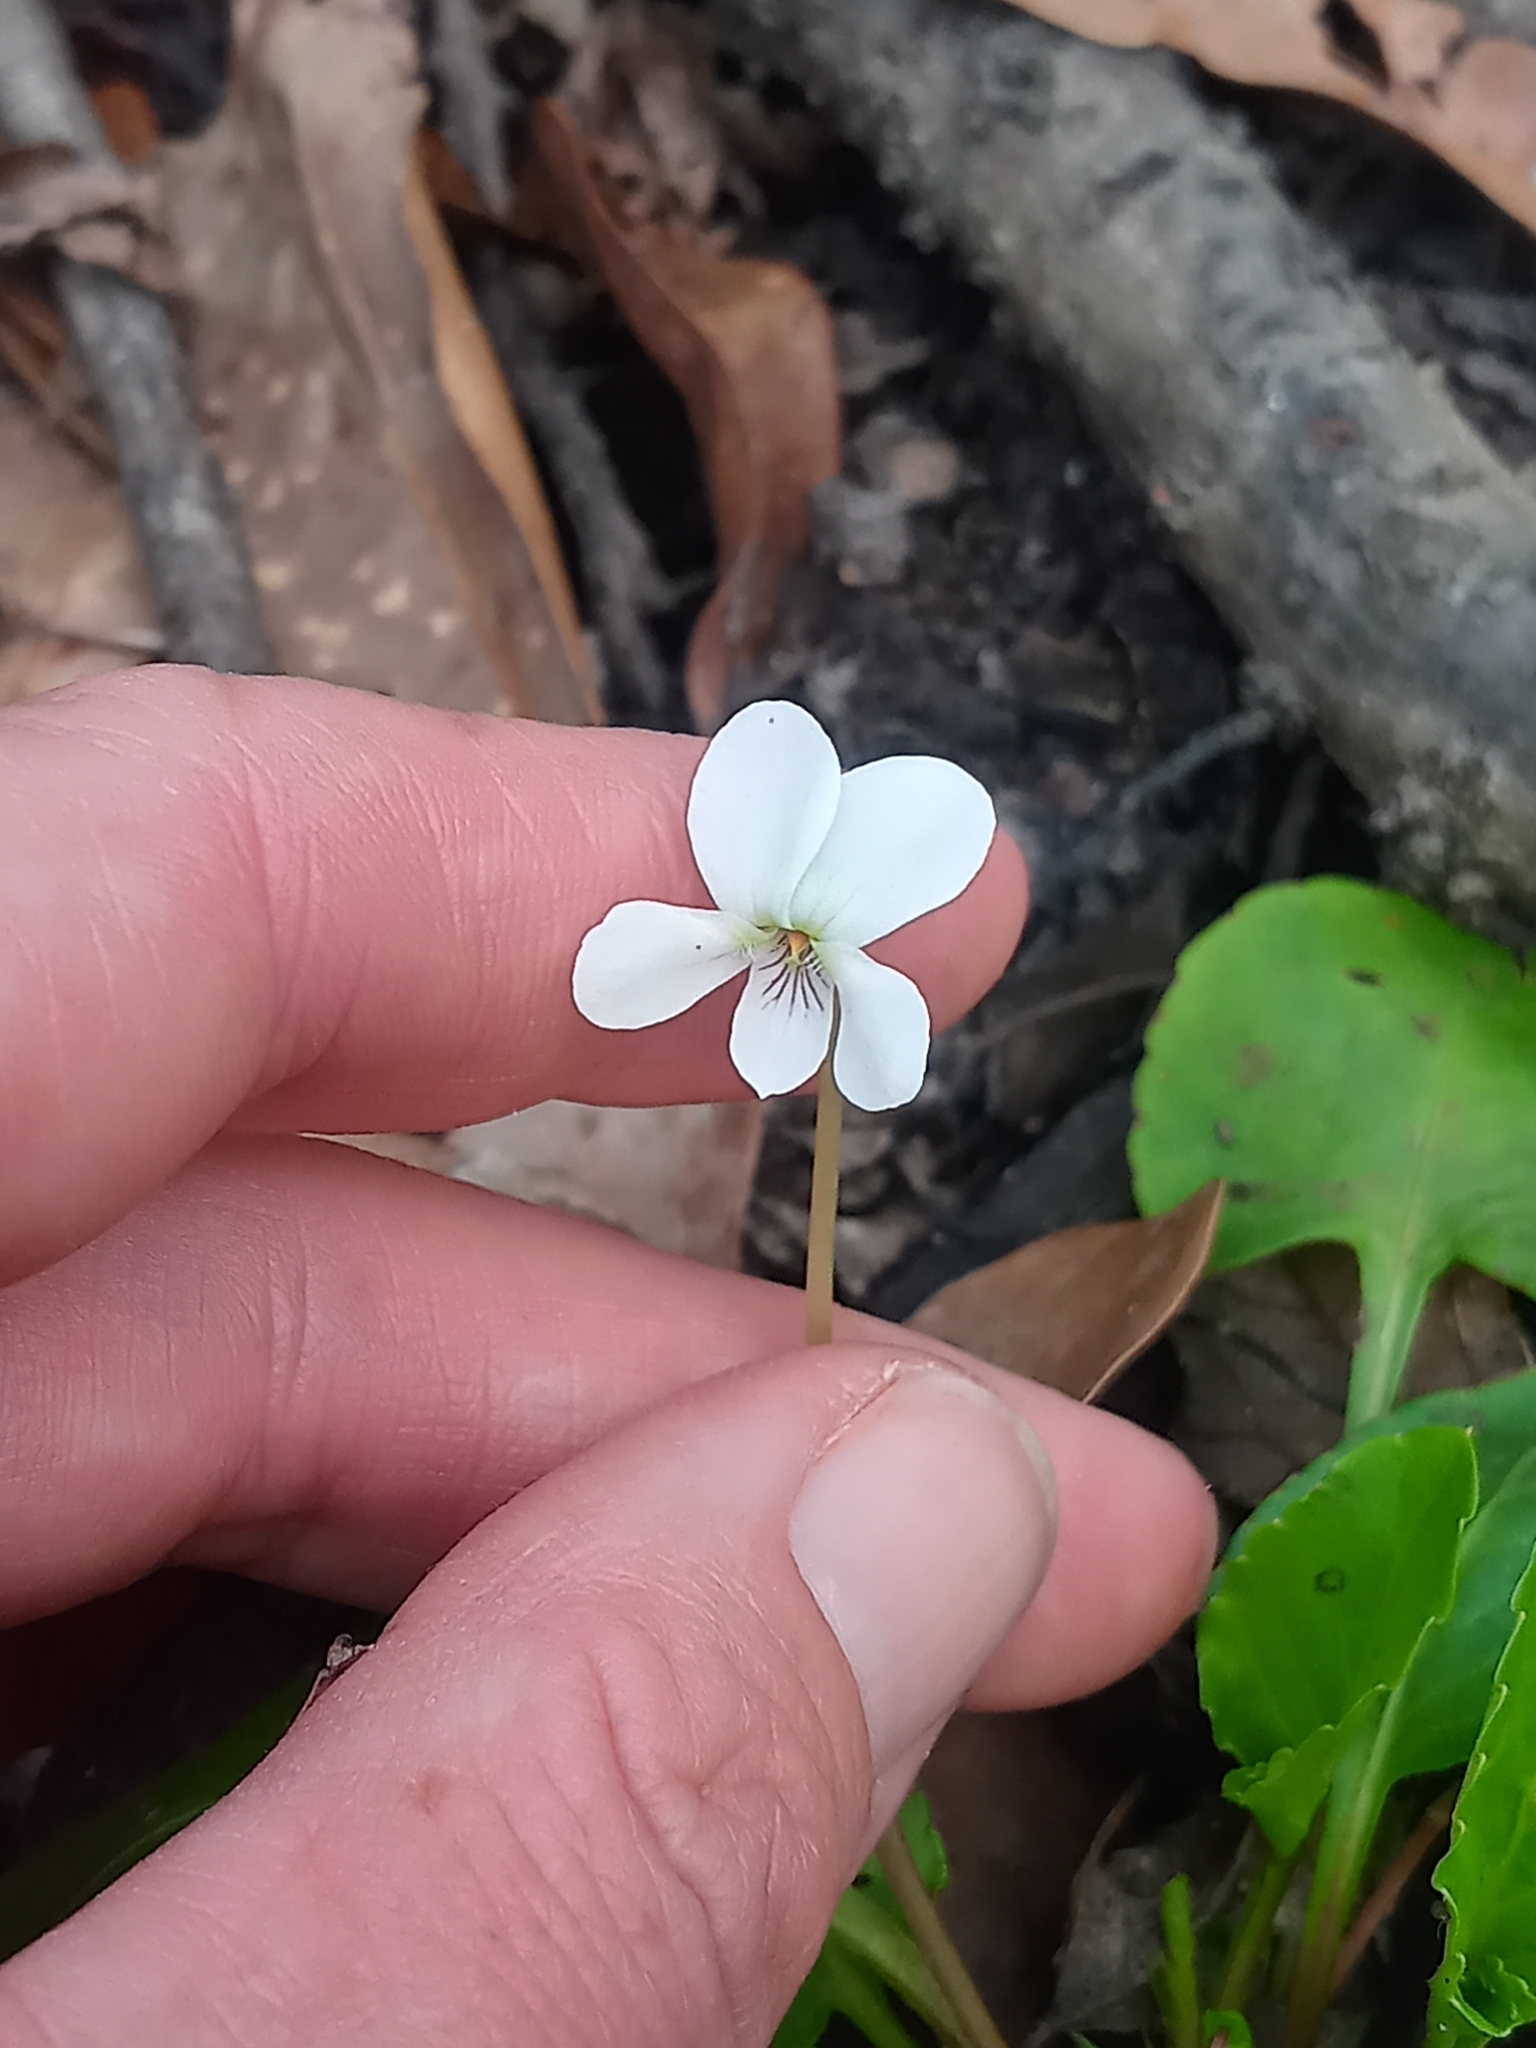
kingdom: Plantae
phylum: Tracheophyta
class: Magnoliopsida
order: Malpighiales
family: Violaceae
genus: Viola
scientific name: Viola primulifolia
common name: Primrose-leaf violet
